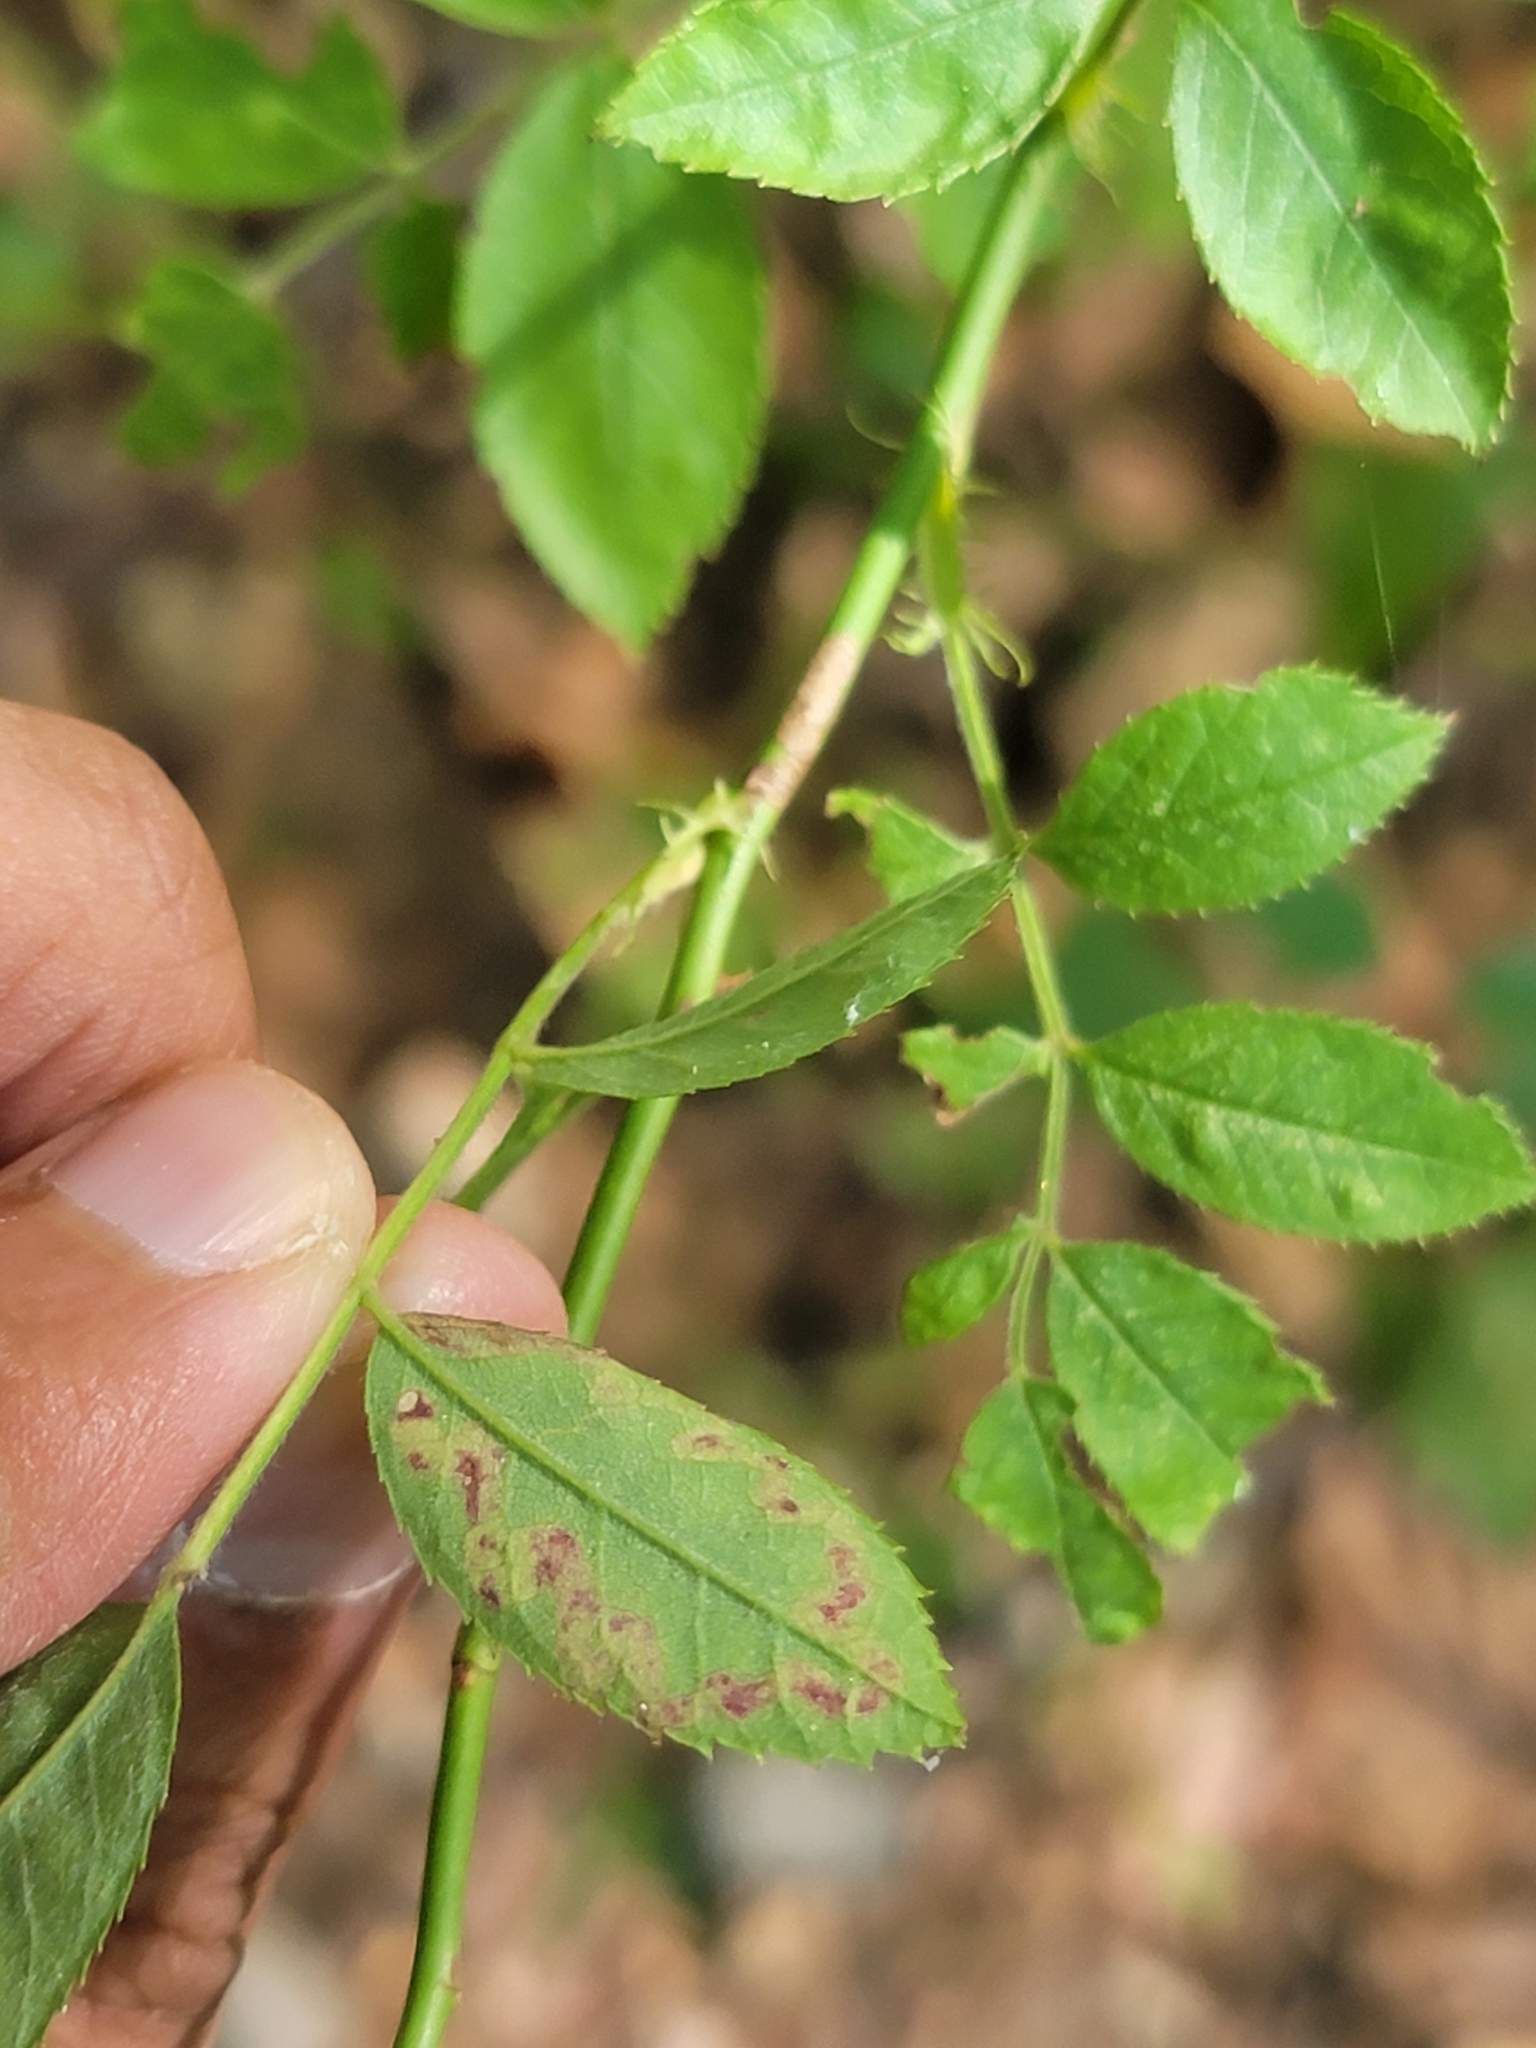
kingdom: Animalia
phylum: Arthropoda
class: Insecta
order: Lepidoptera
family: Nepticulidae
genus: Stigmella
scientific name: Stigmella rosaefoliella
